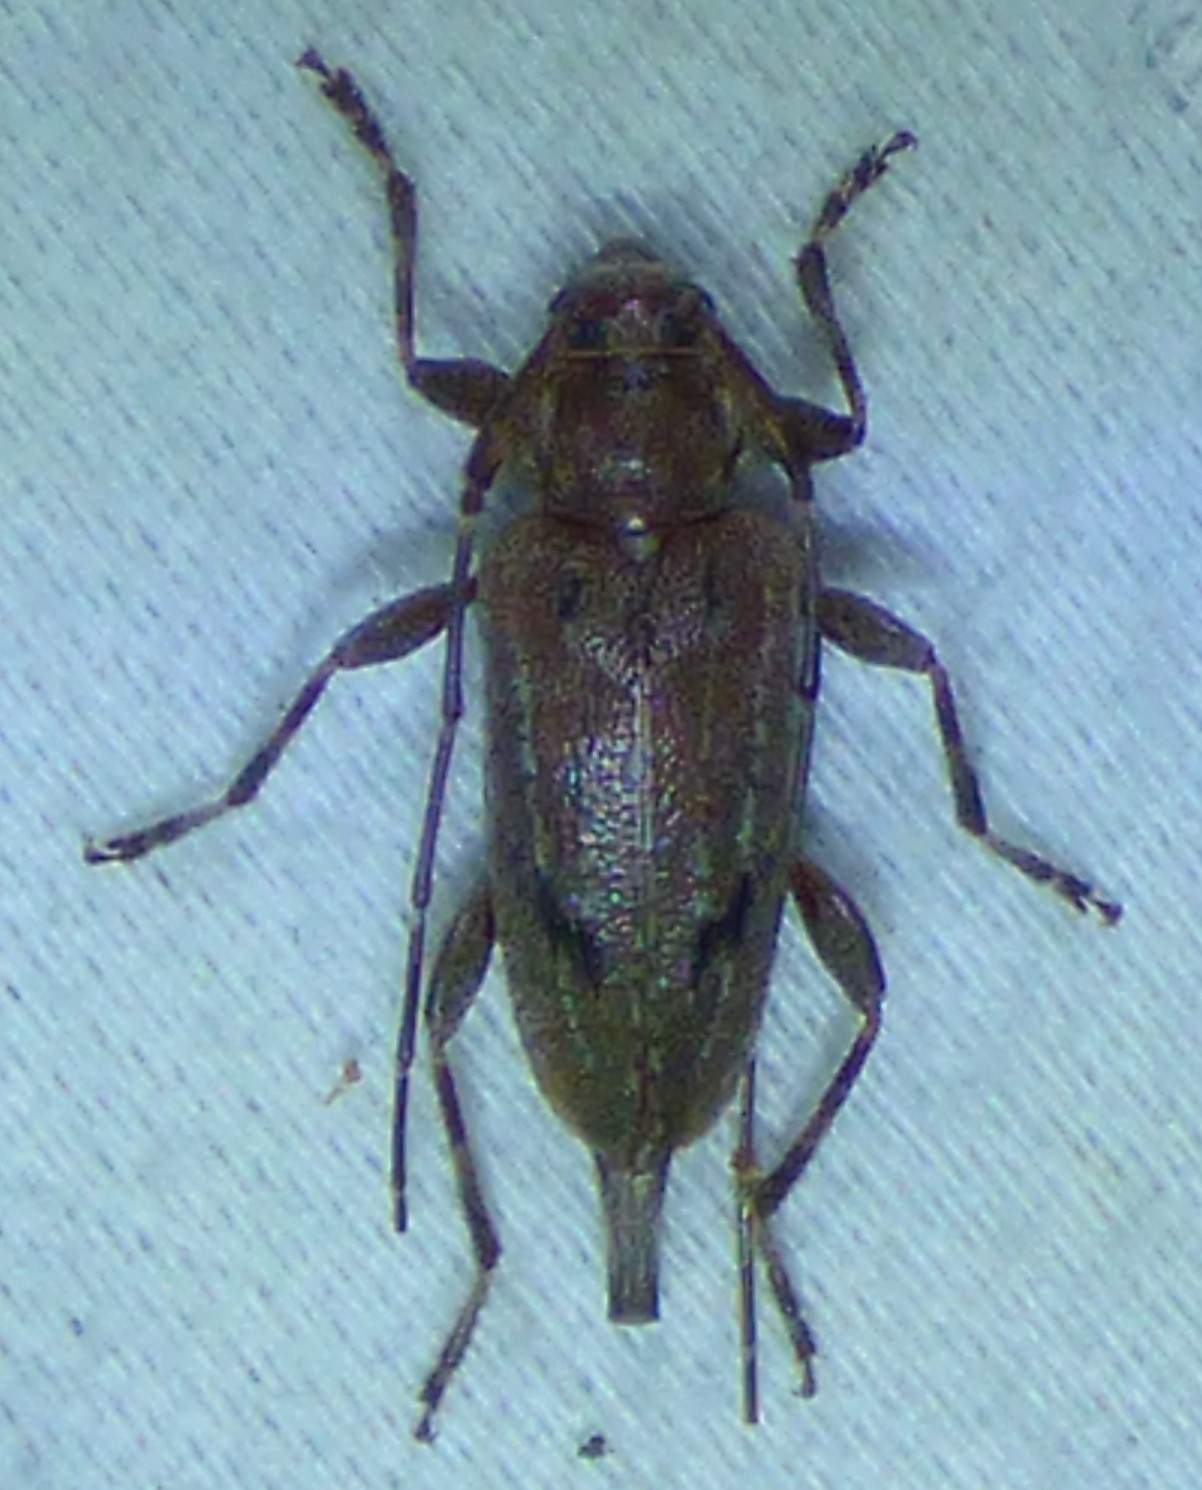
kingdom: Animalia
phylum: Arthropoda
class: Insecta
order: Coleoptera
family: Cerambycidae
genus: Eutrichillus
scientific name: Eutrichillus biguttatus
